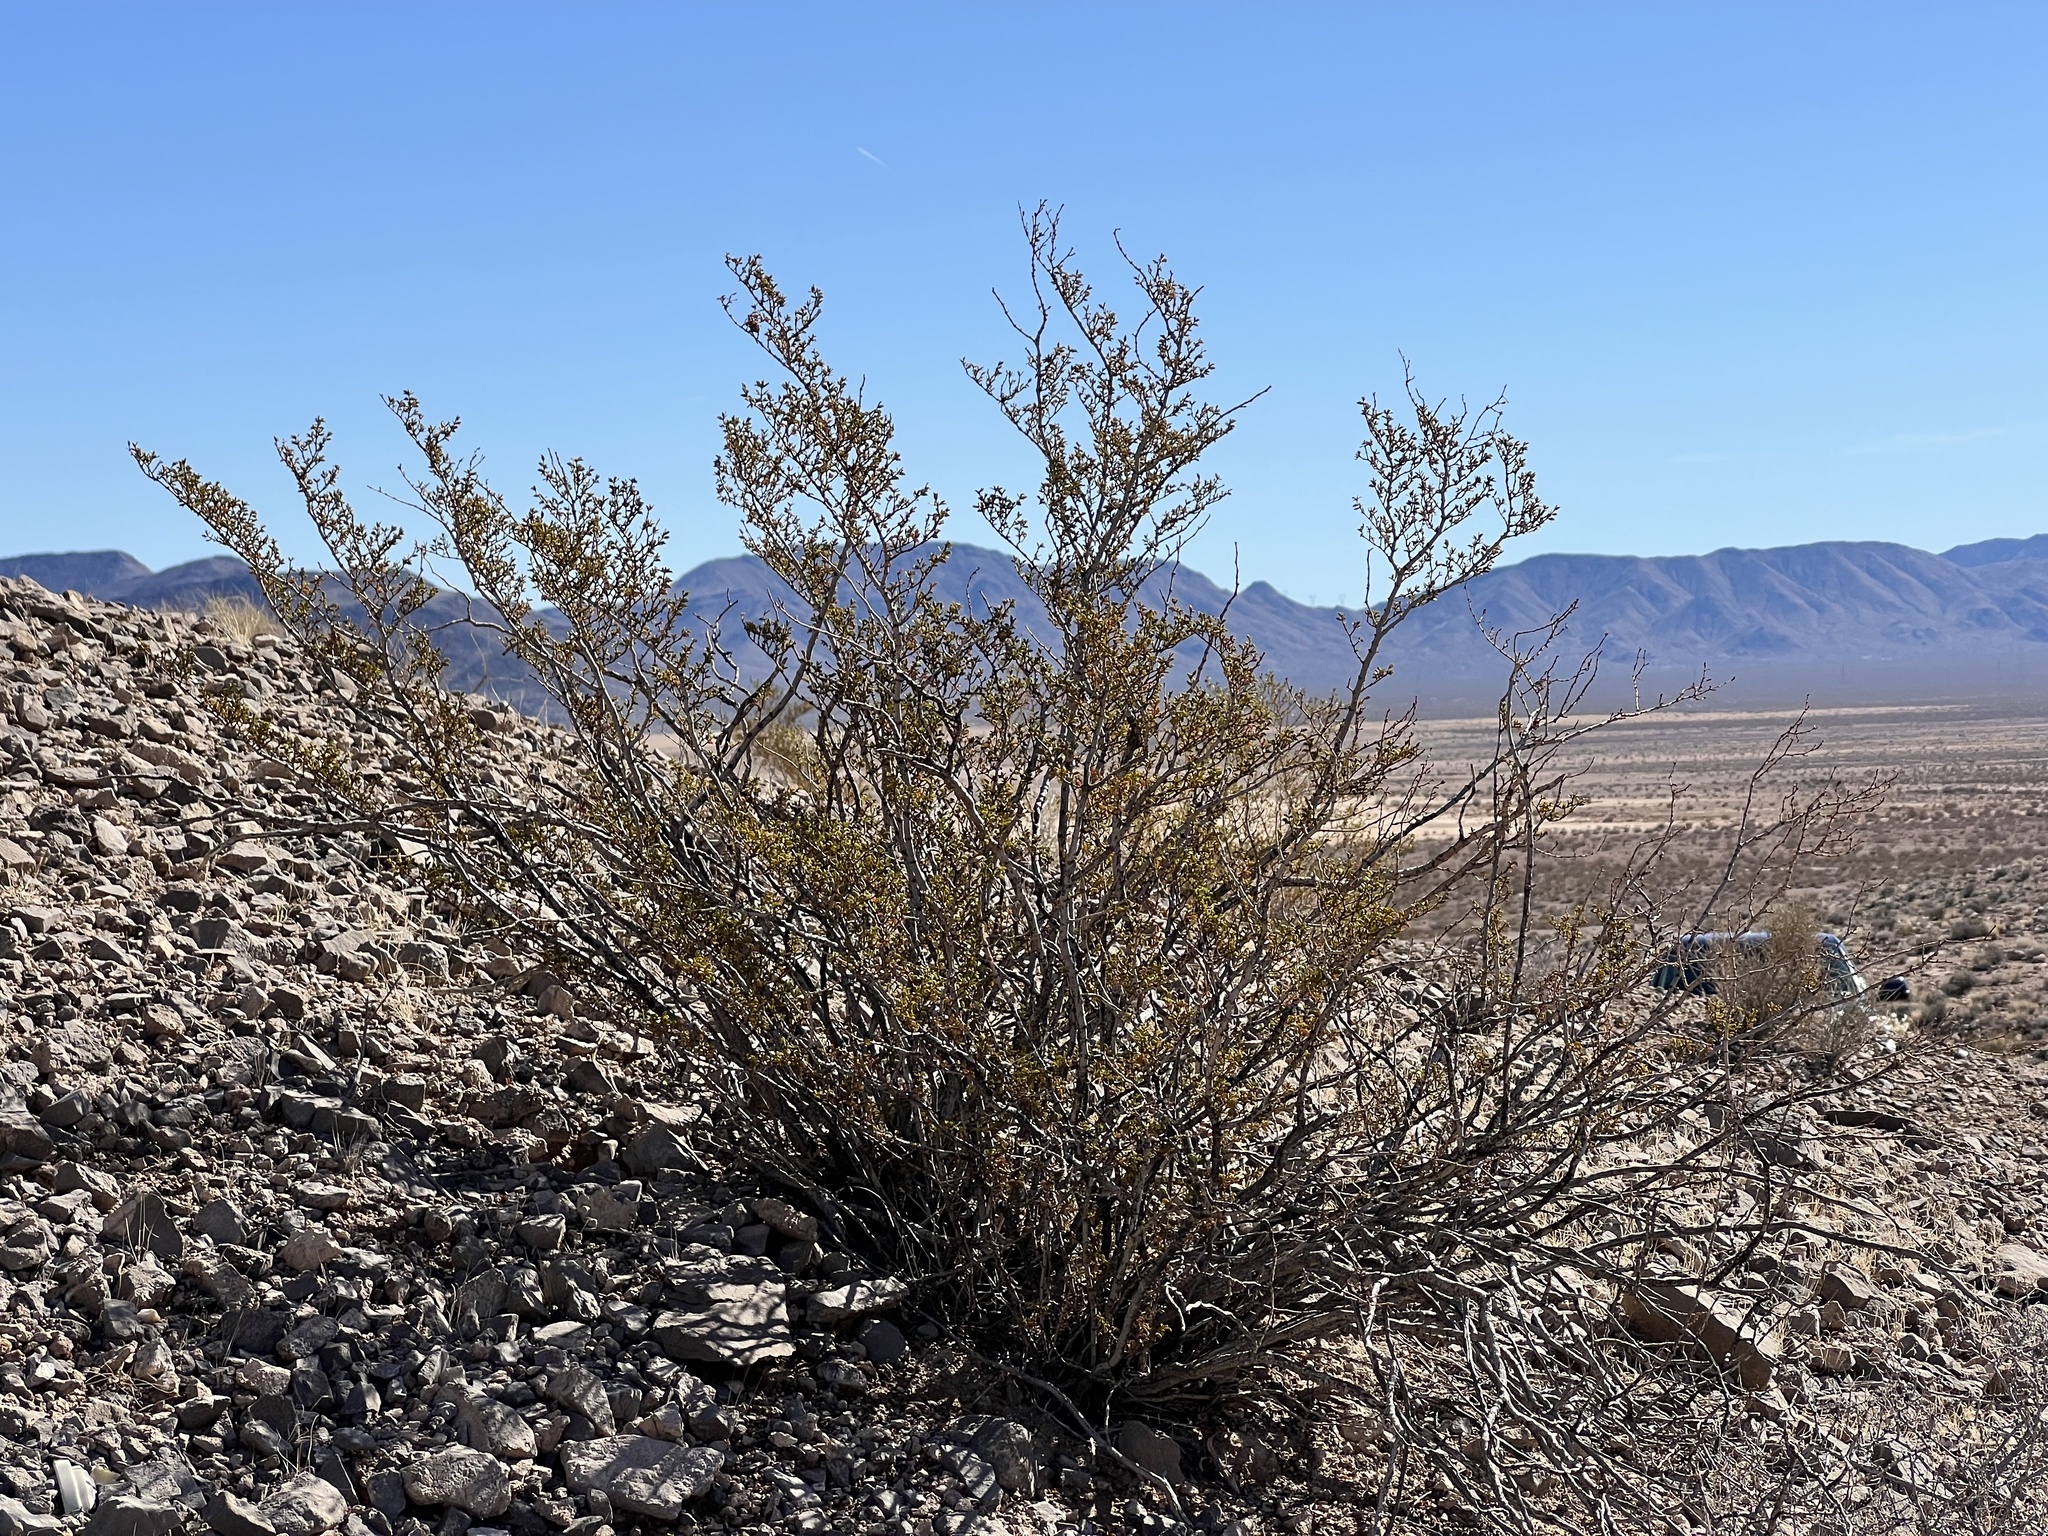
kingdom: Plantae
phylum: Tracheophyta
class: Magnoliopsida
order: Zygophyllales
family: Zygophyllaceae
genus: Larrea
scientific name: Larrea tridentata
